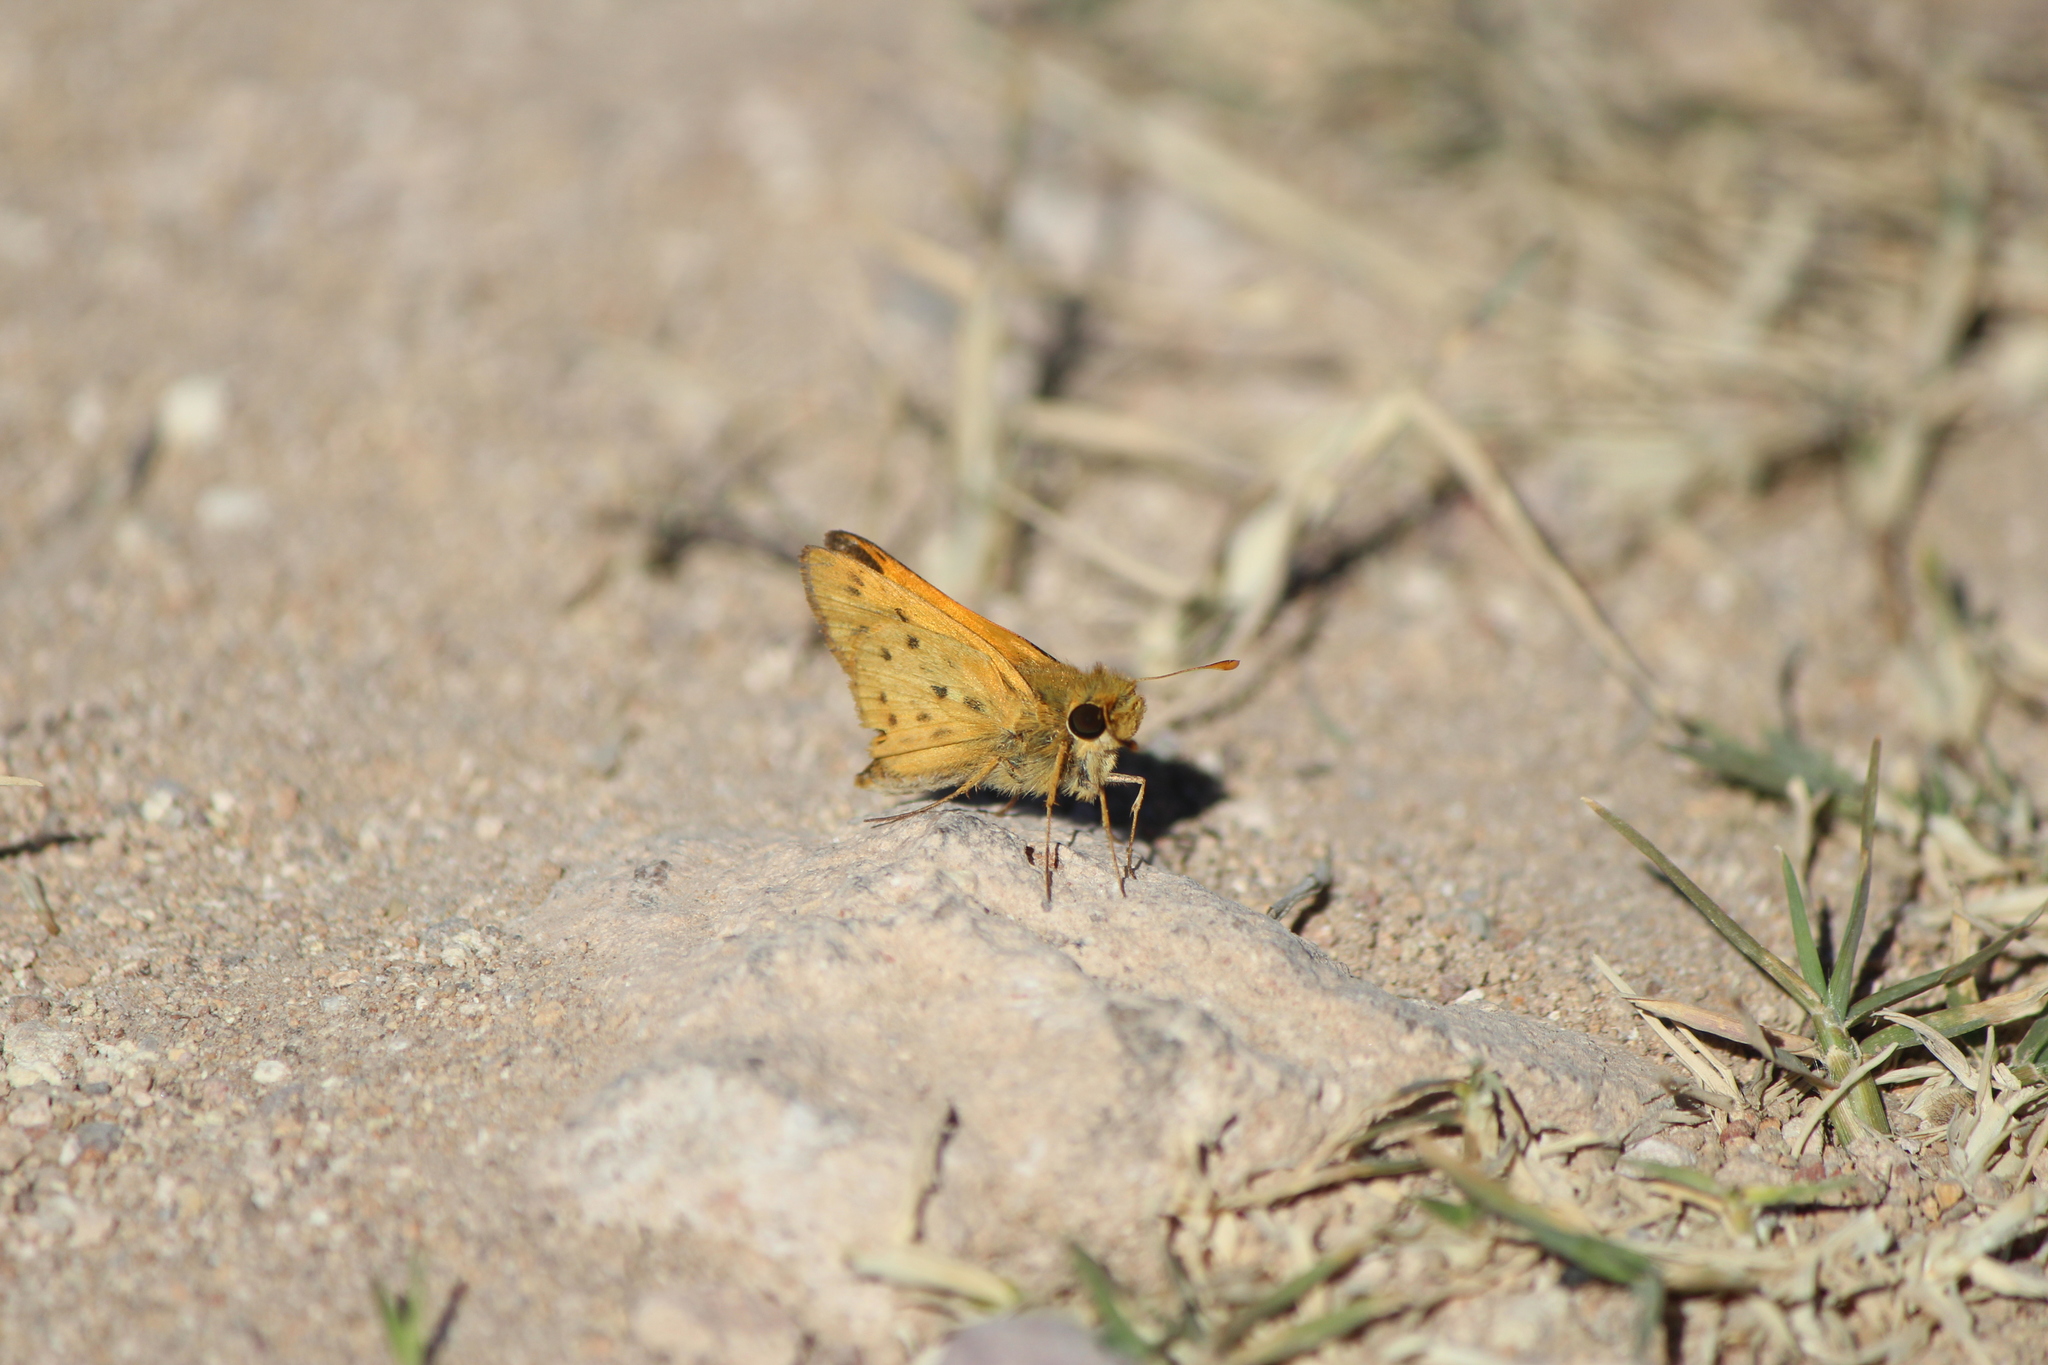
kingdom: Animalia
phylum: Arthropoda
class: Insecta
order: Lepidoptera
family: Hesperiidae
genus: Hylephila
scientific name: Hylephila phyleus
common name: Fiery skipper
